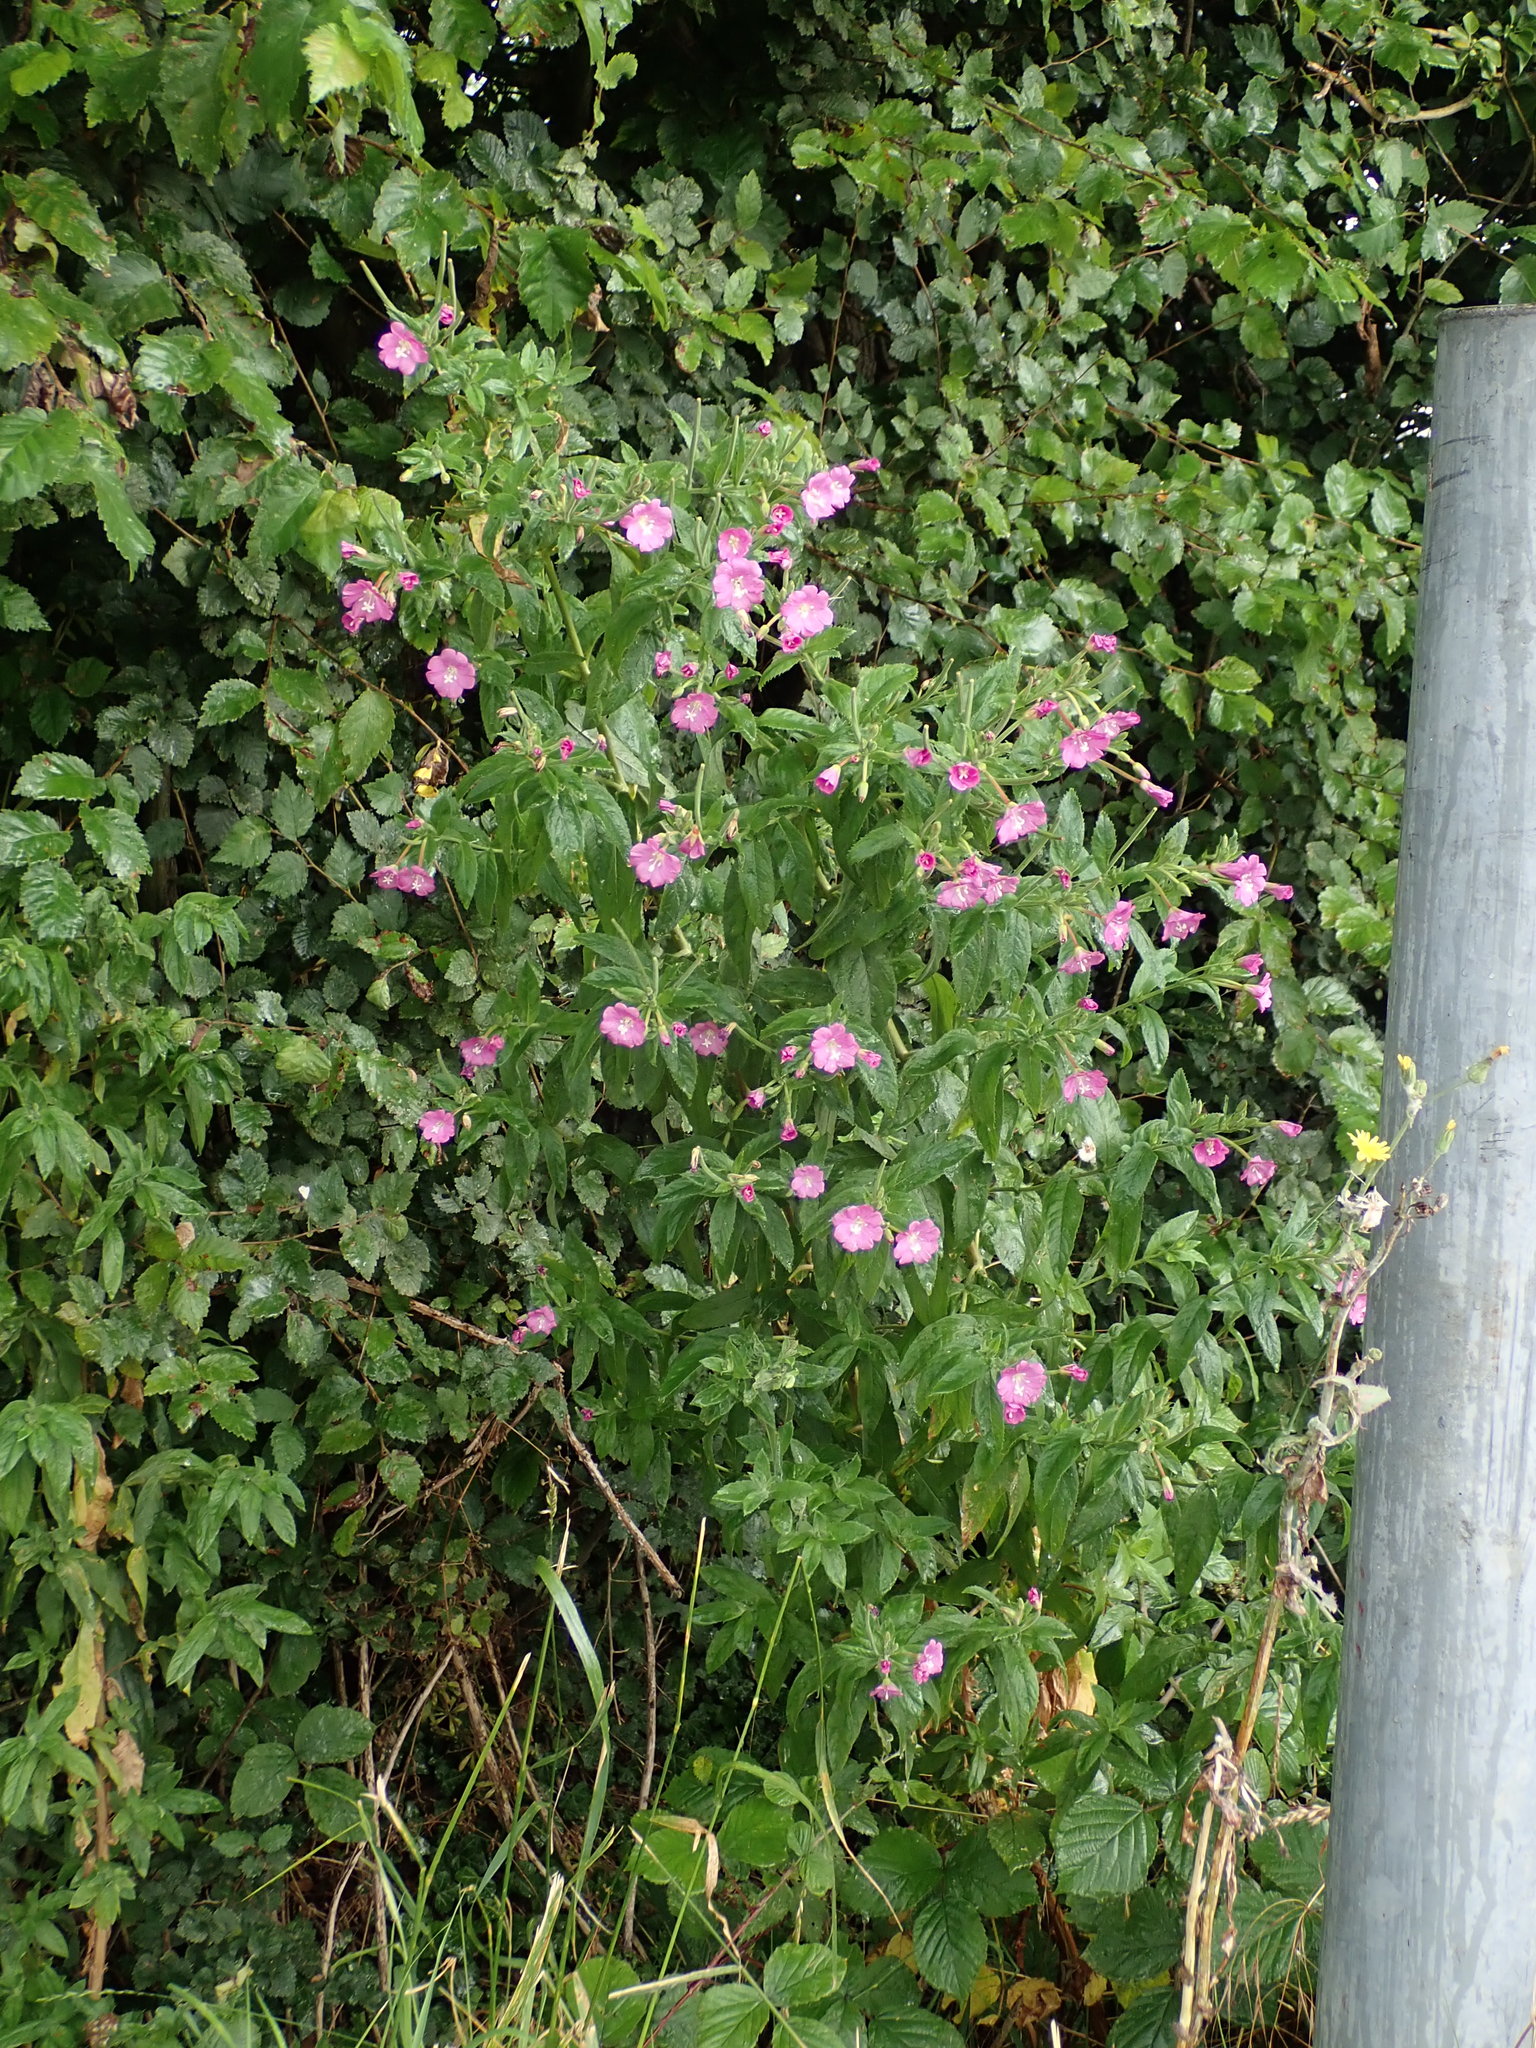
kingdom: Plantae
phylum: Tracheophyta
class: Magnoliopsida
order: Myrtales
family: Onagraceae
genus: Epilobium
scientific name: Epilobium hirsutum
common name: Great willowherb
